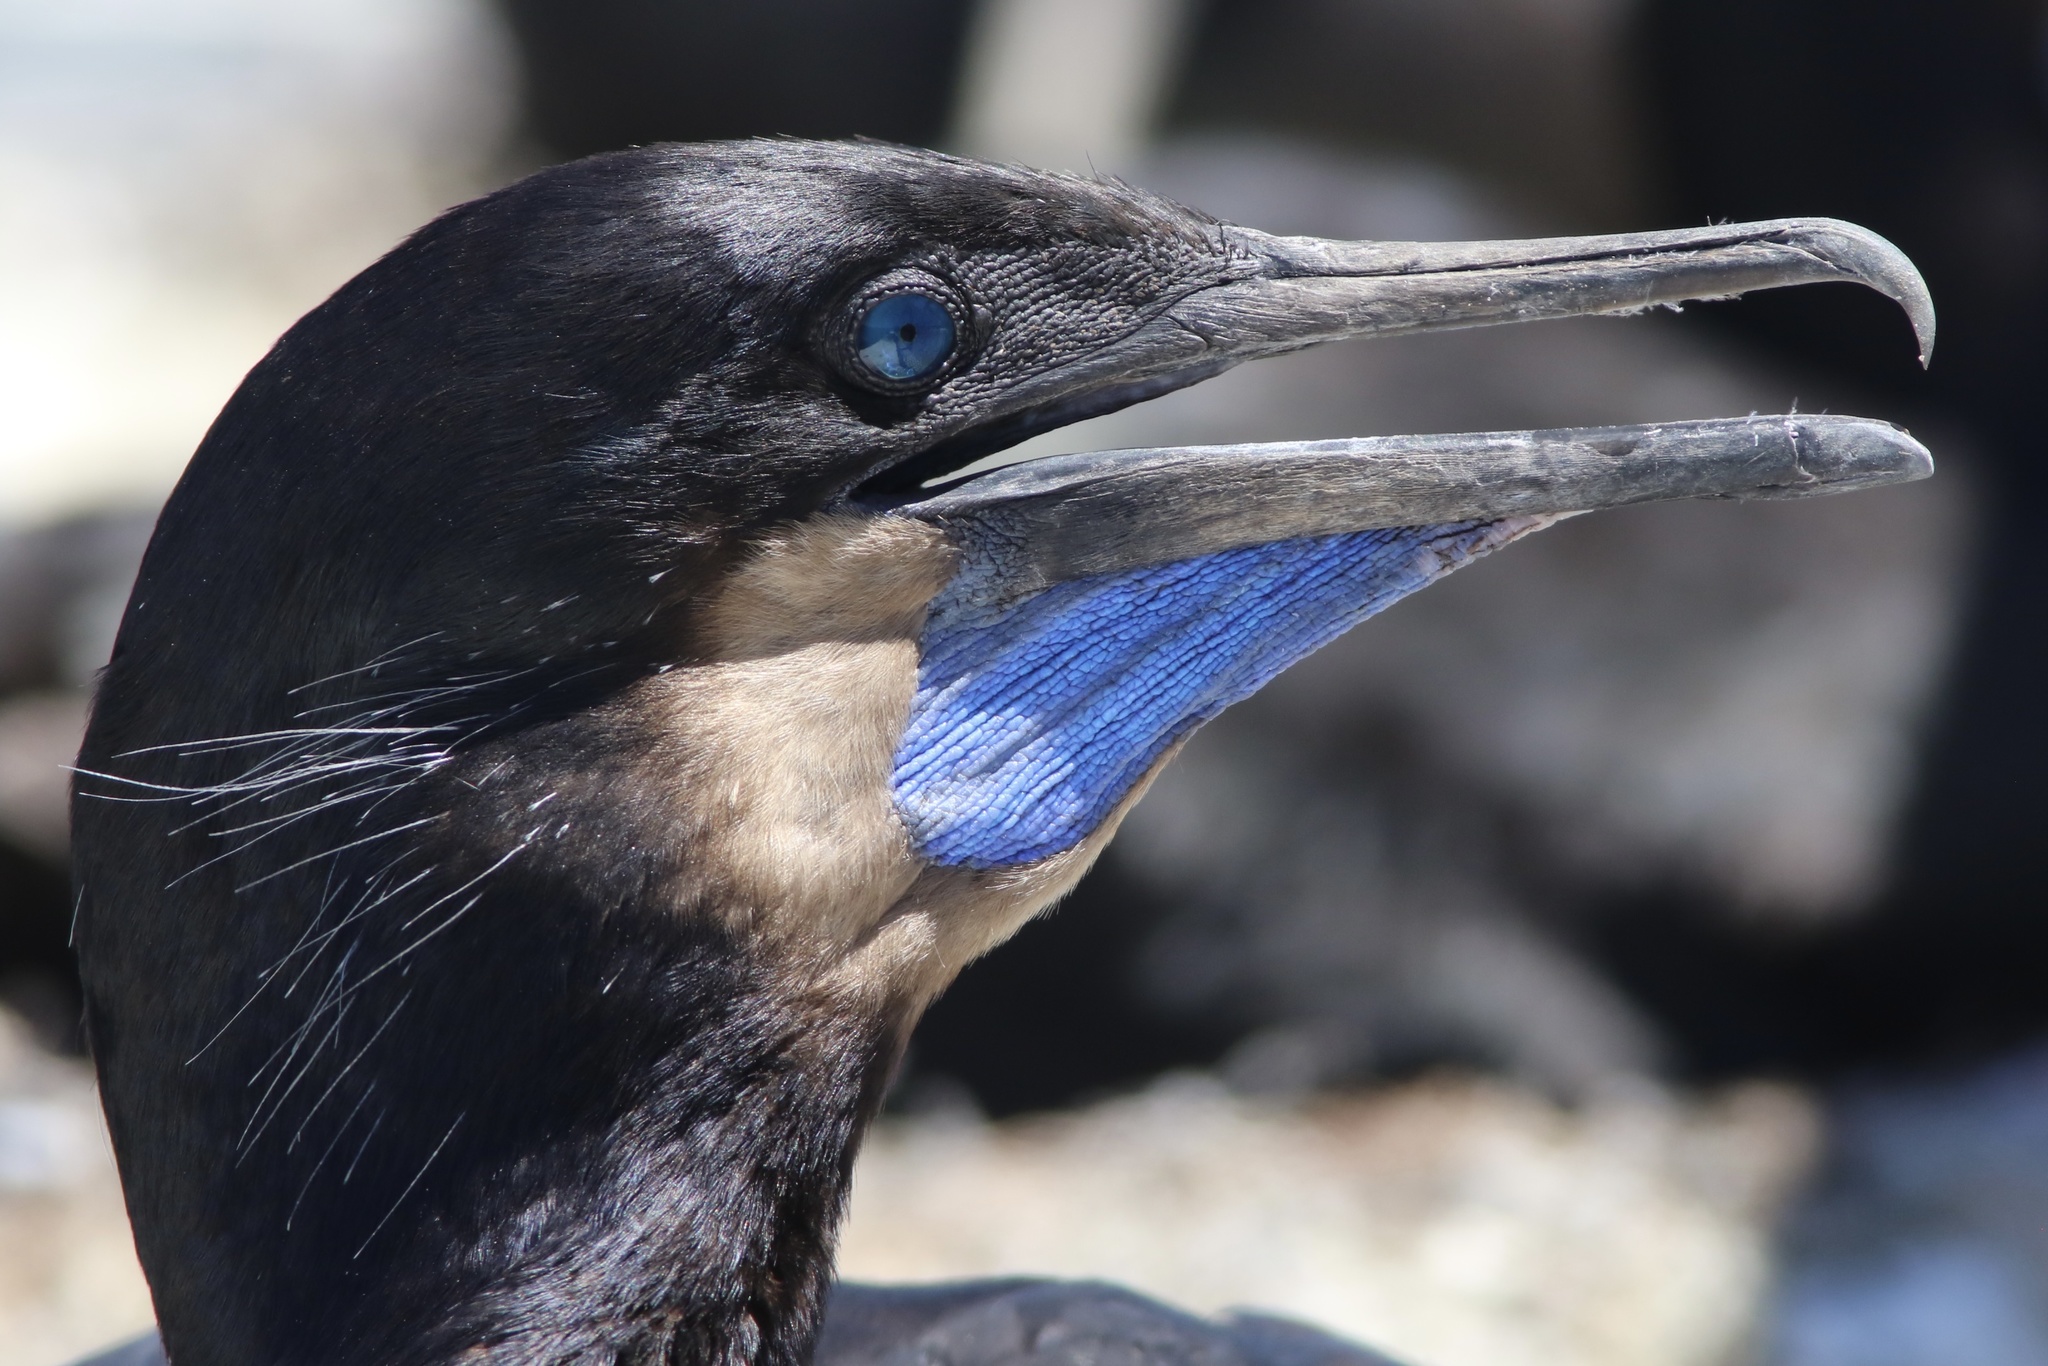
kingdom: Animalia
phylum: Chordata
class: Aves
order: Suliformes
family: Phalacrocoracidae
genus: Urile
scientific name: Urile penicillatus
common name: Brandt's cormorant
